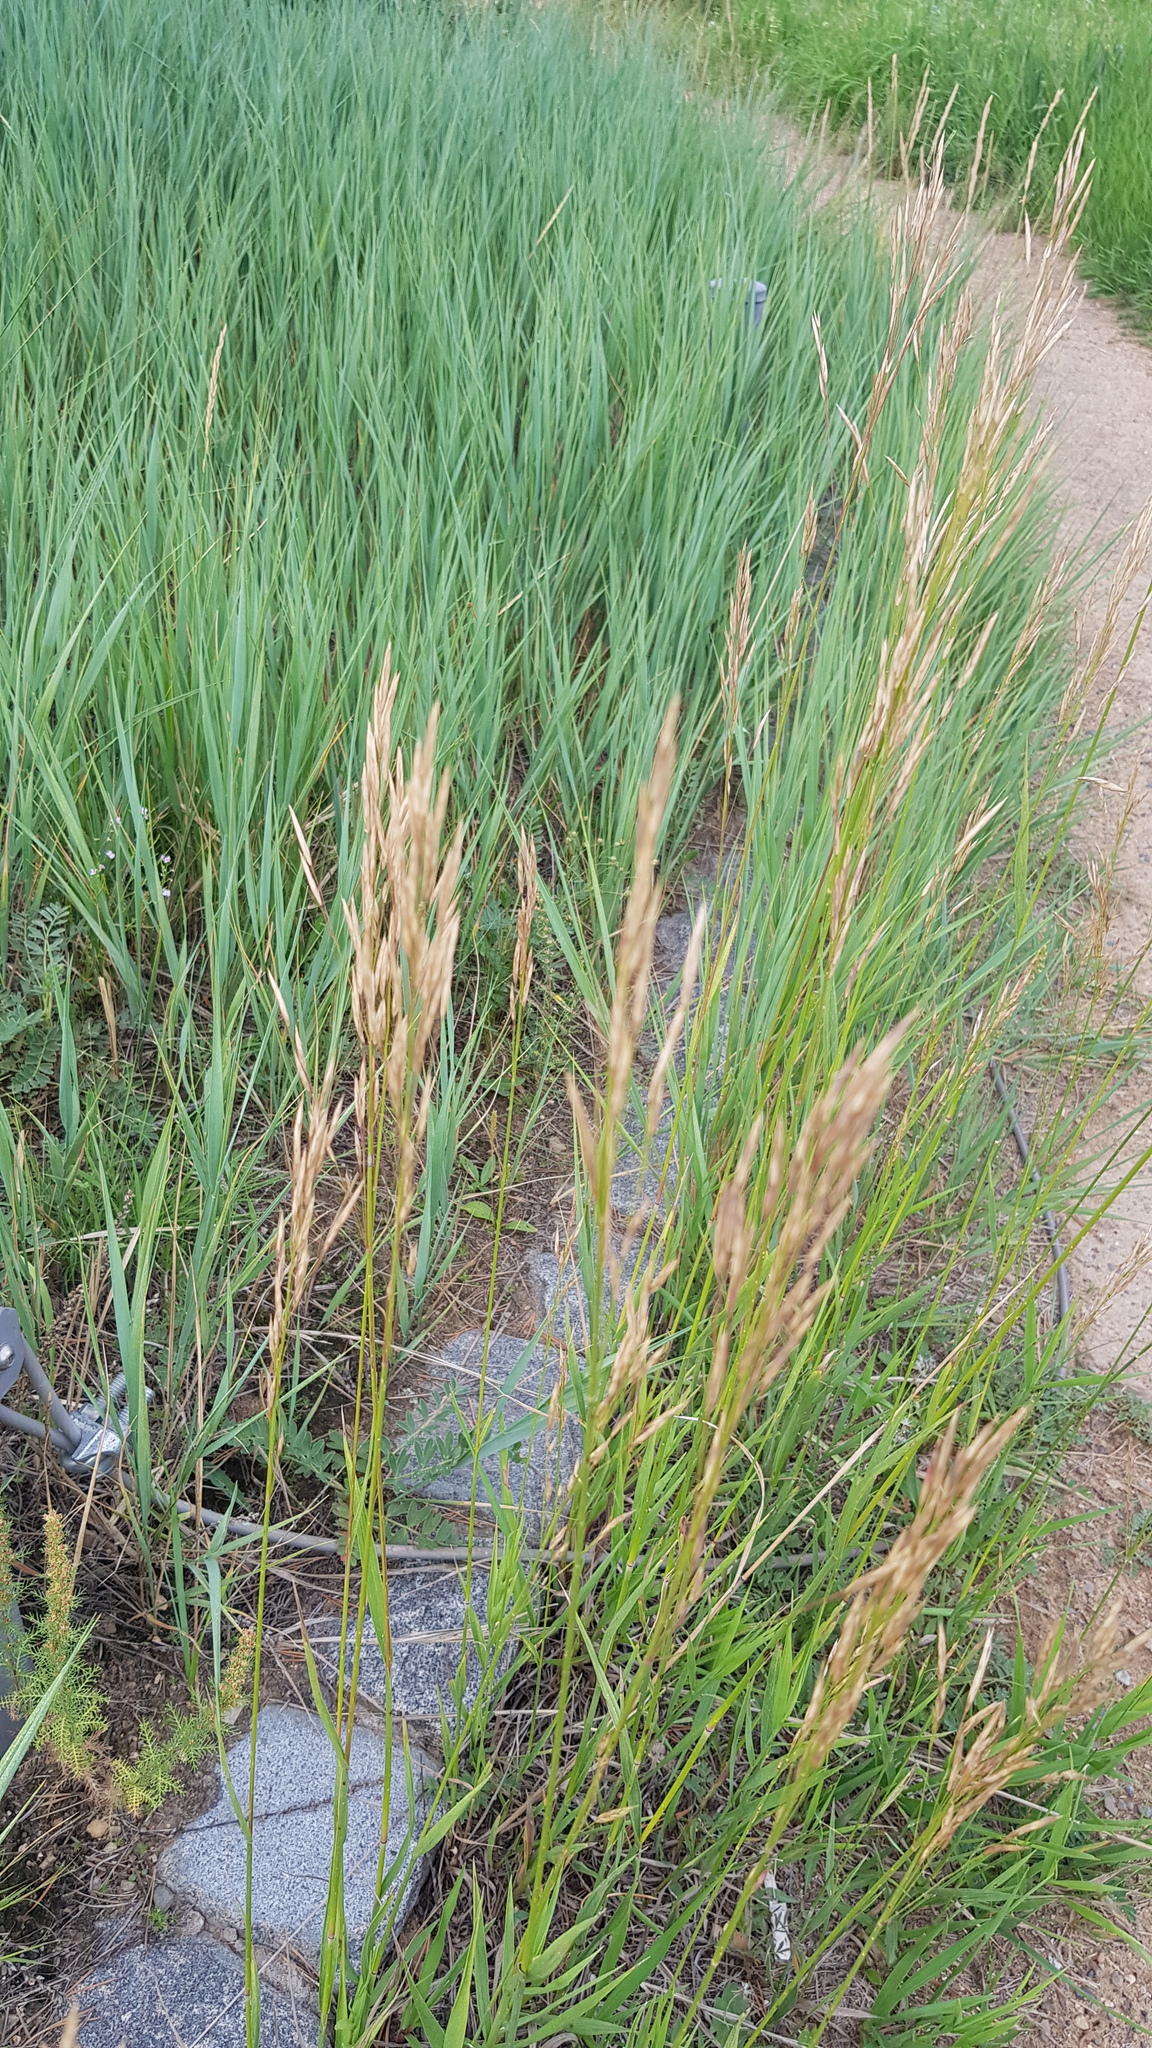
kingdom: Plantae
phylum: Tracheophyta
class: Liliopsida
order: Poales
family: Poaceae
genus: Bromus
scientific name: Bromus inermis
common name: Smooth brome
